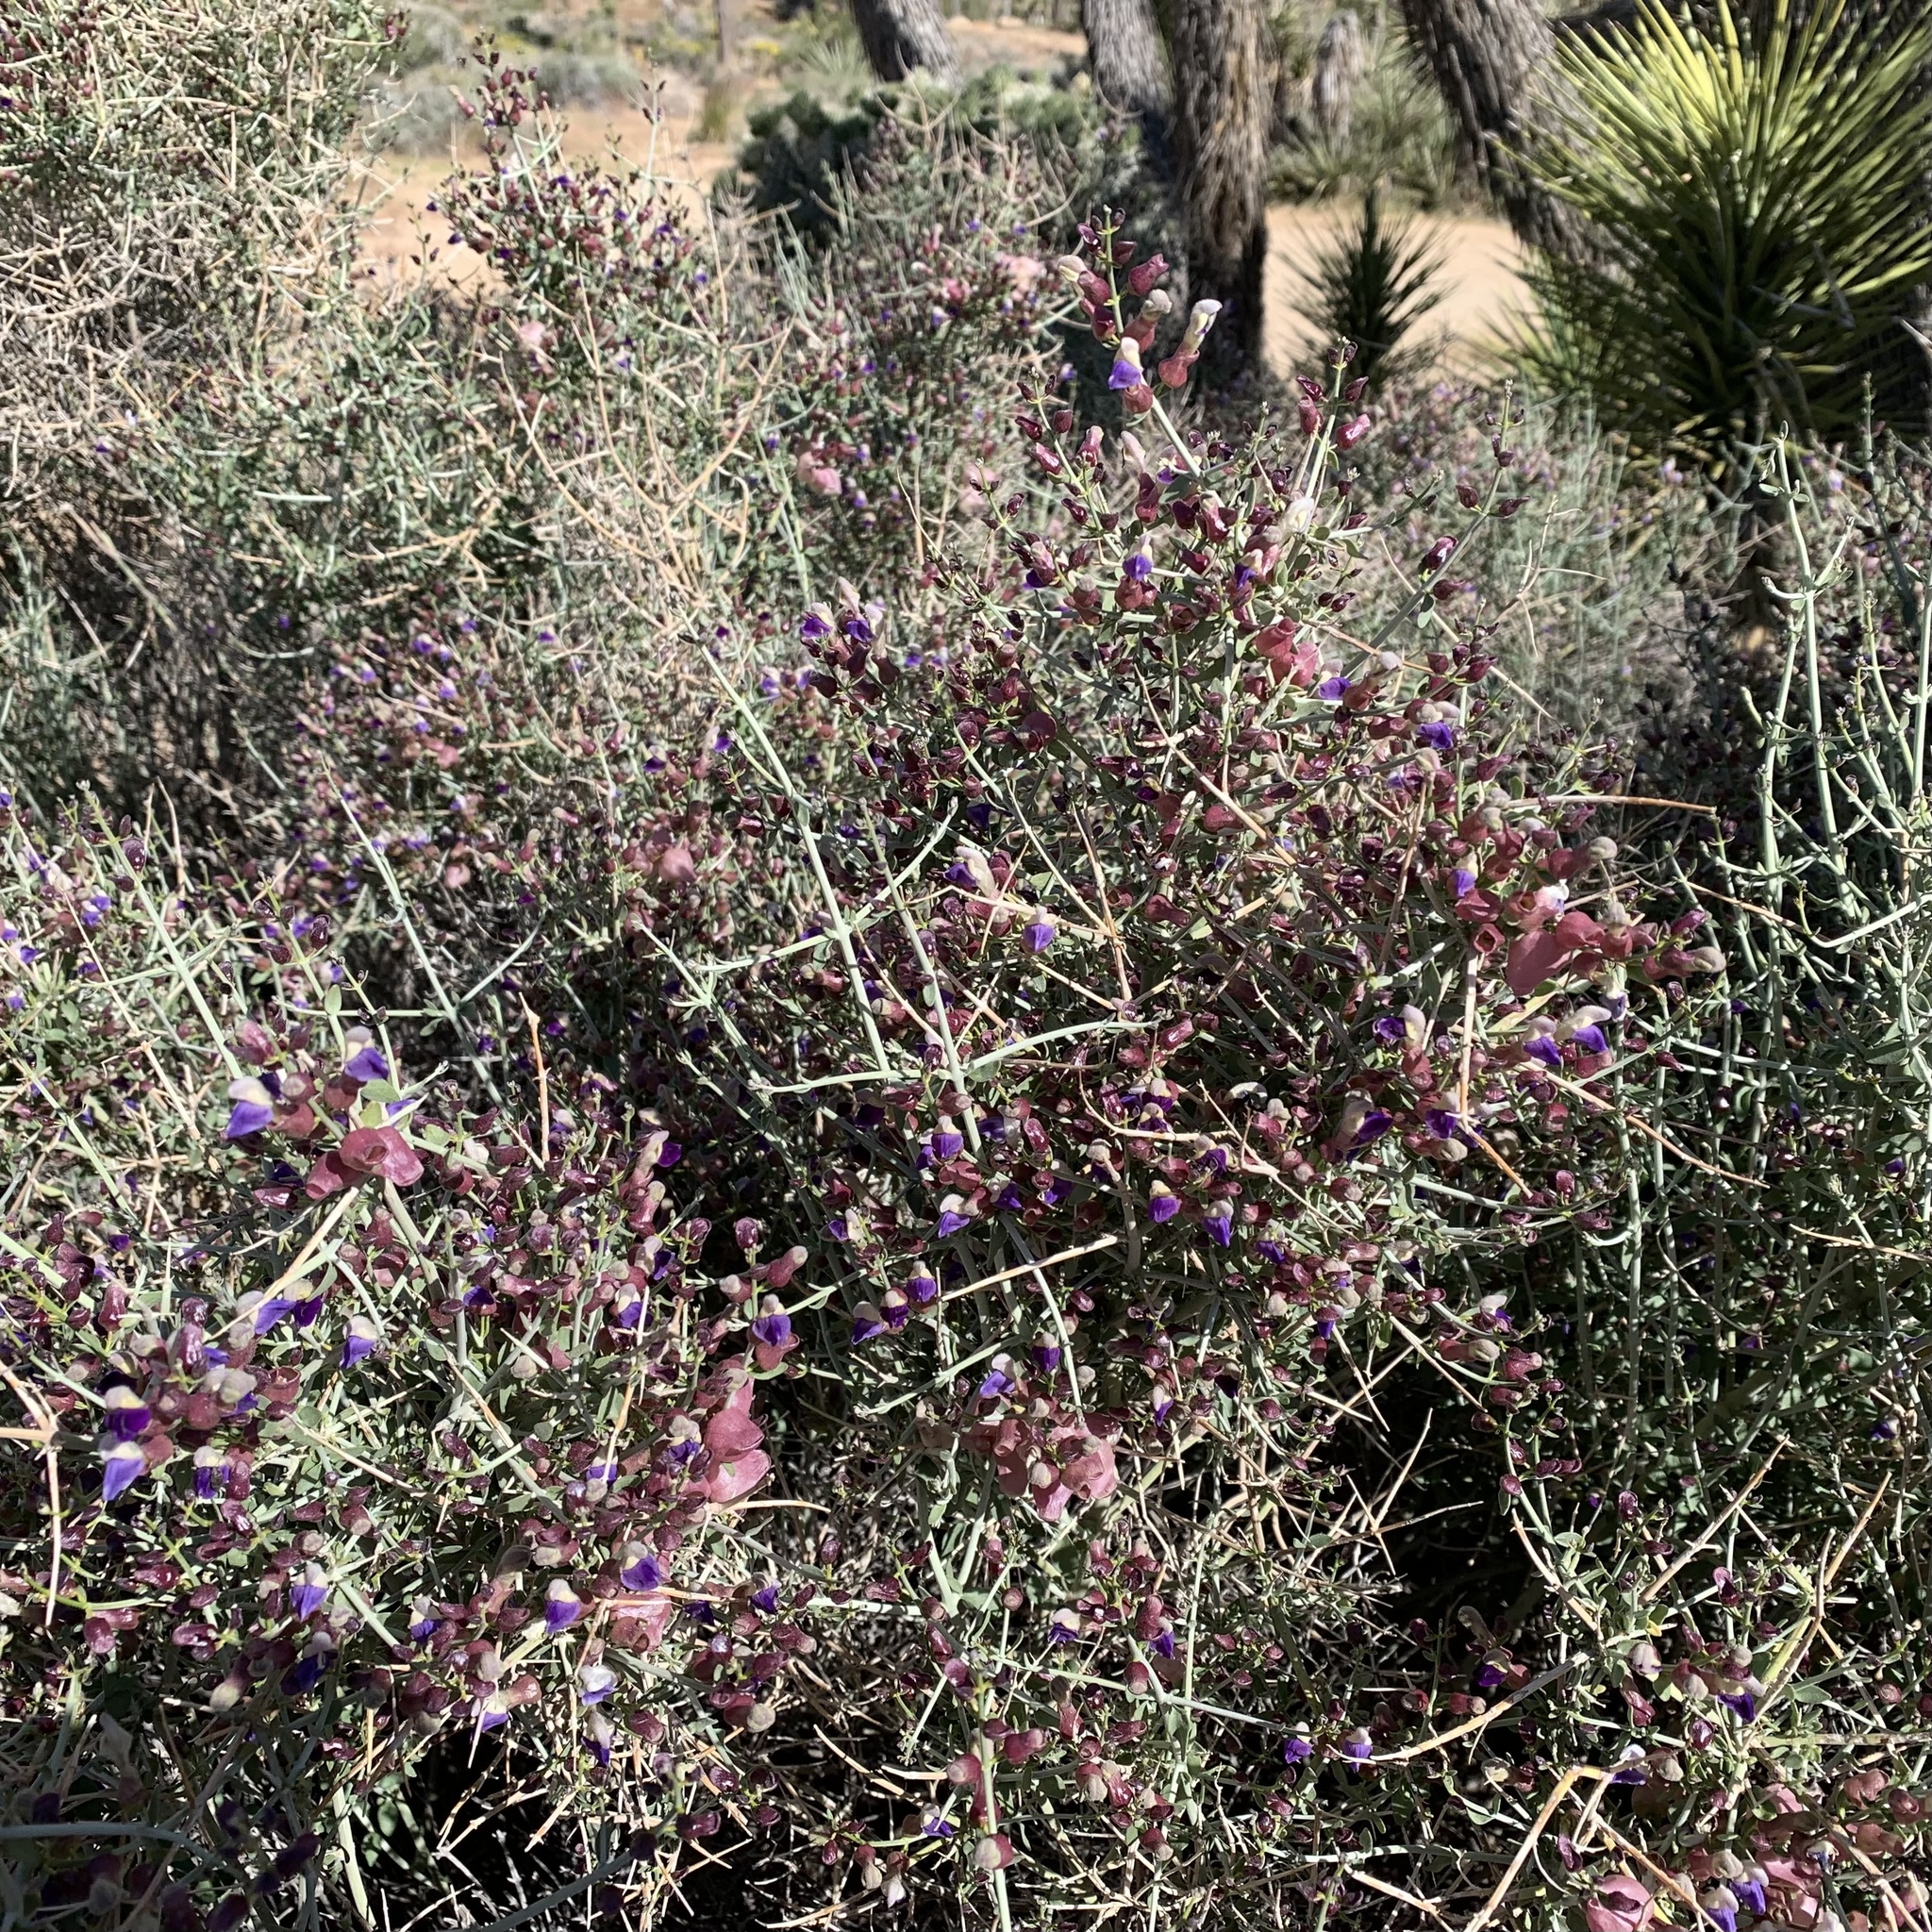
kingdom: Plantae
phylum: Tracheophyta
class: Magnoliopsida
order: Lamiales
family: Lamiaceae
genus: Scutellaria
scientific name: Scutellaria mexicana
